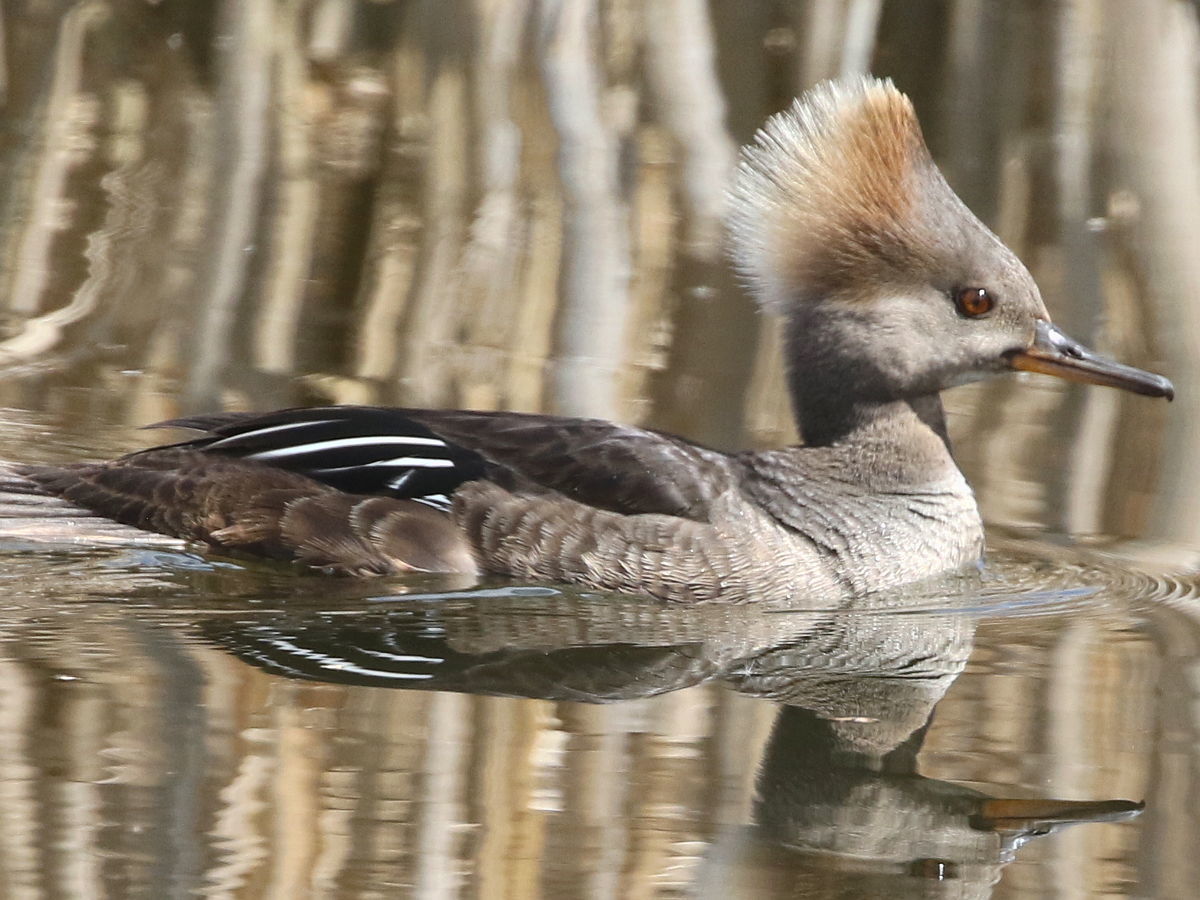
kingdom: Animalia
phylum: Chordata
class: Aves
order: Anseriformes
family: Anatidae
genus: Lophodytes
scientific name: Lophodytes cucullatus
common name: Hooded merganser
